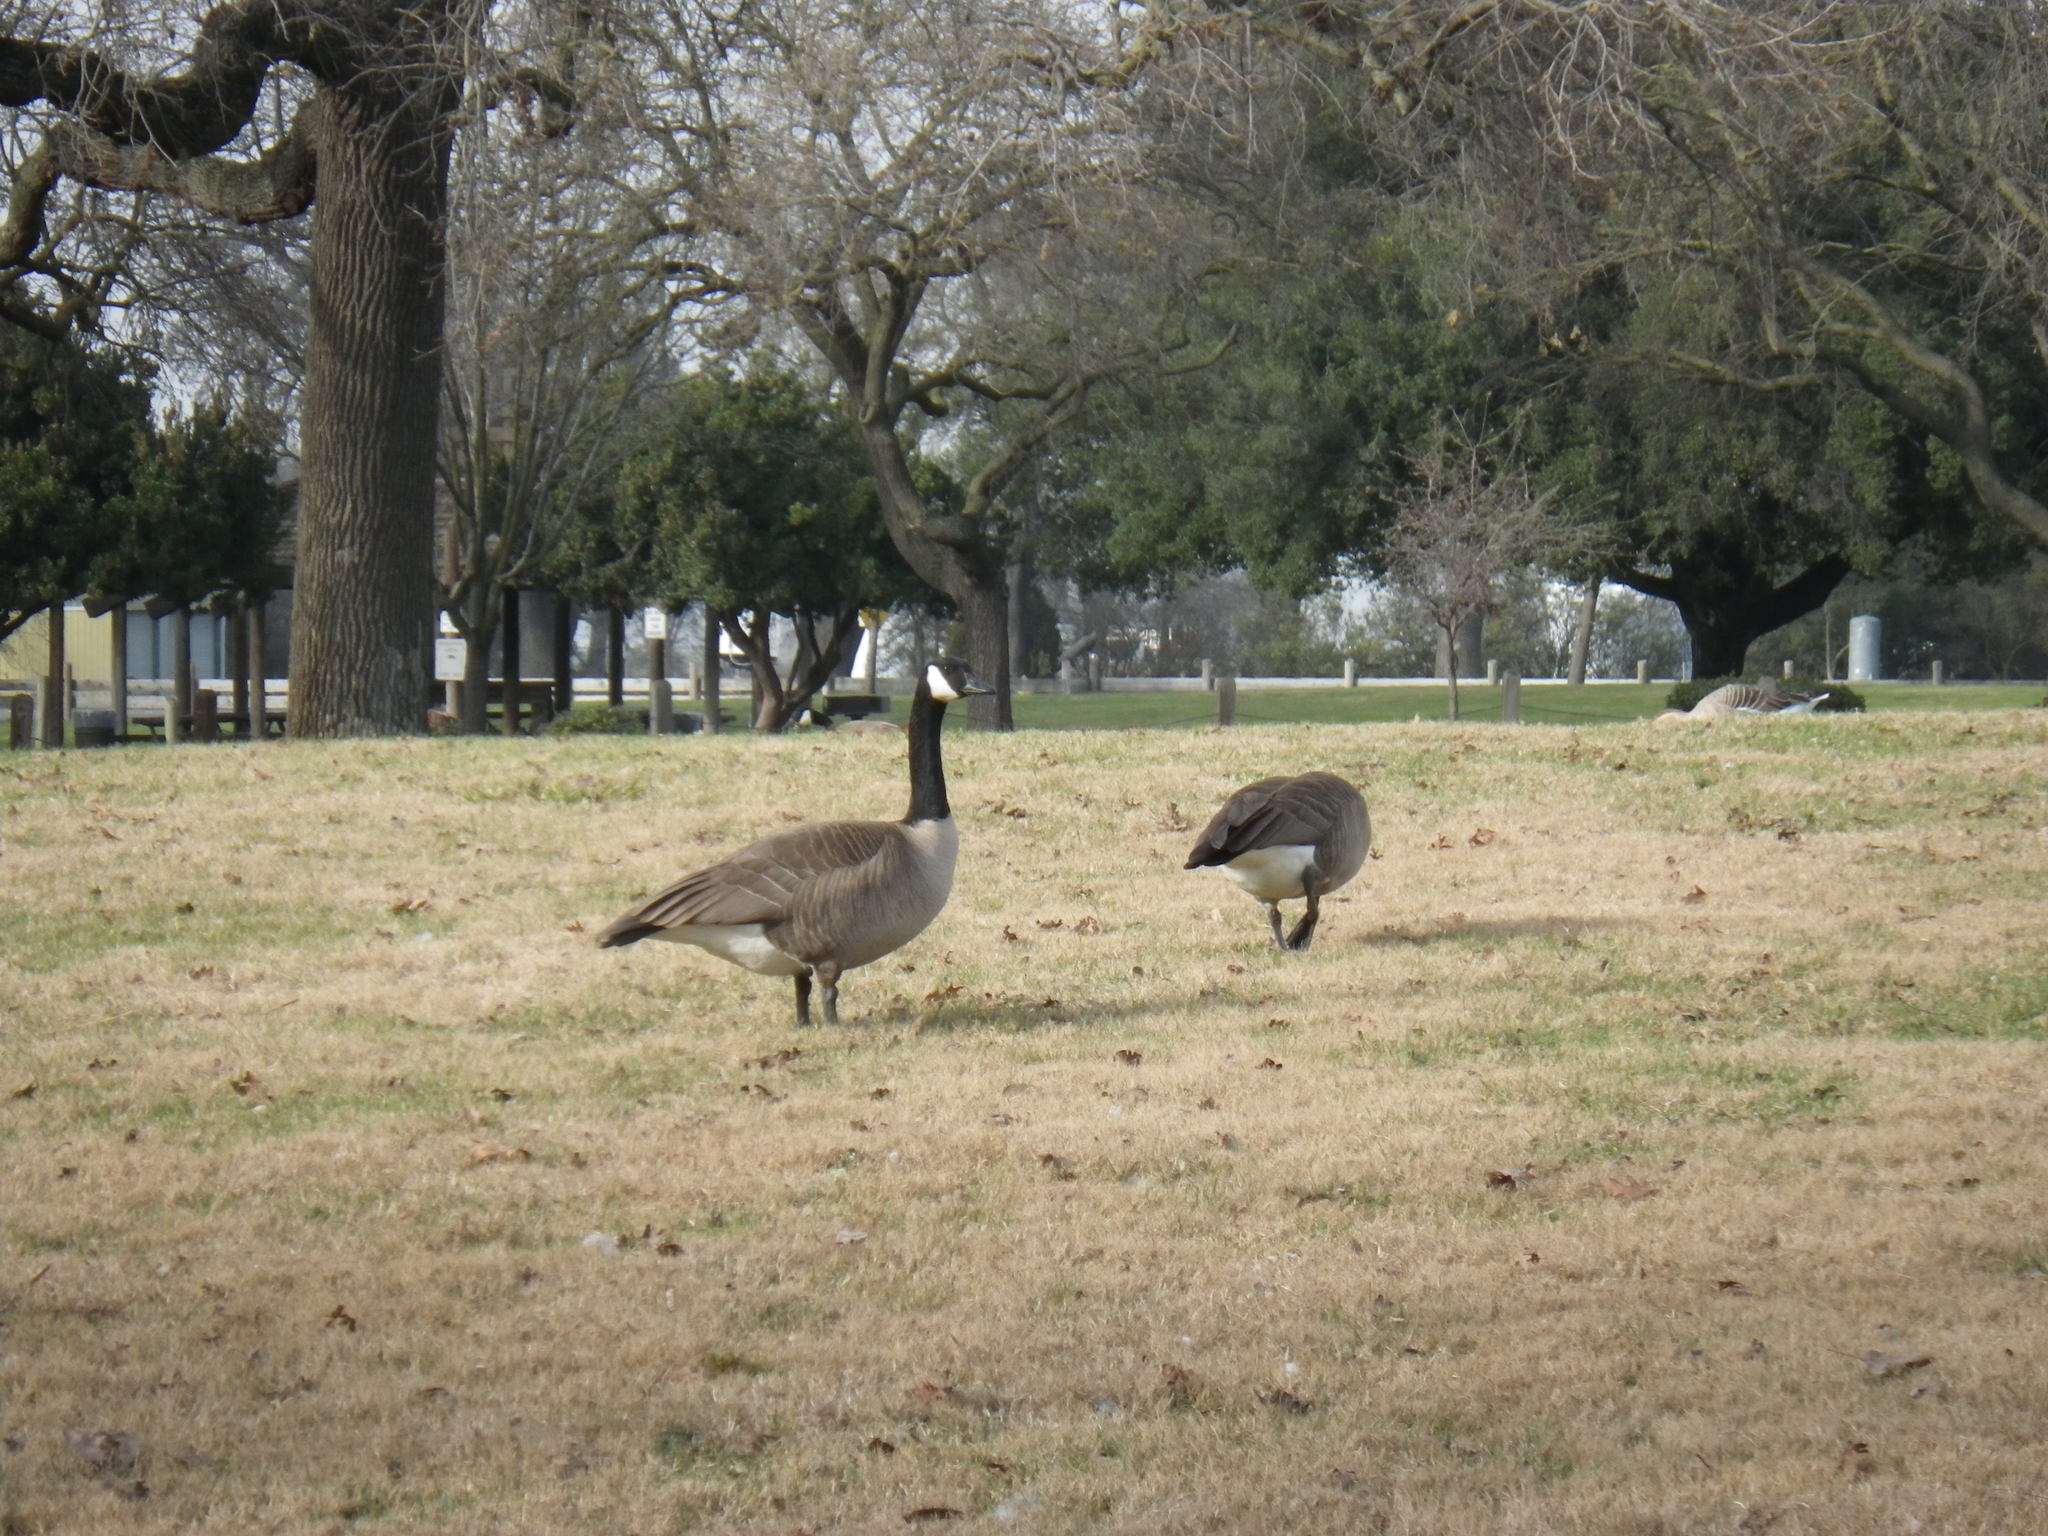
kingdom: Animalia
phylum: Chordata
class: Aves
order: Anseriformes
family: Anatidae
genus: Branta
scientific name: Branta canadensis
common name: Canada goose
